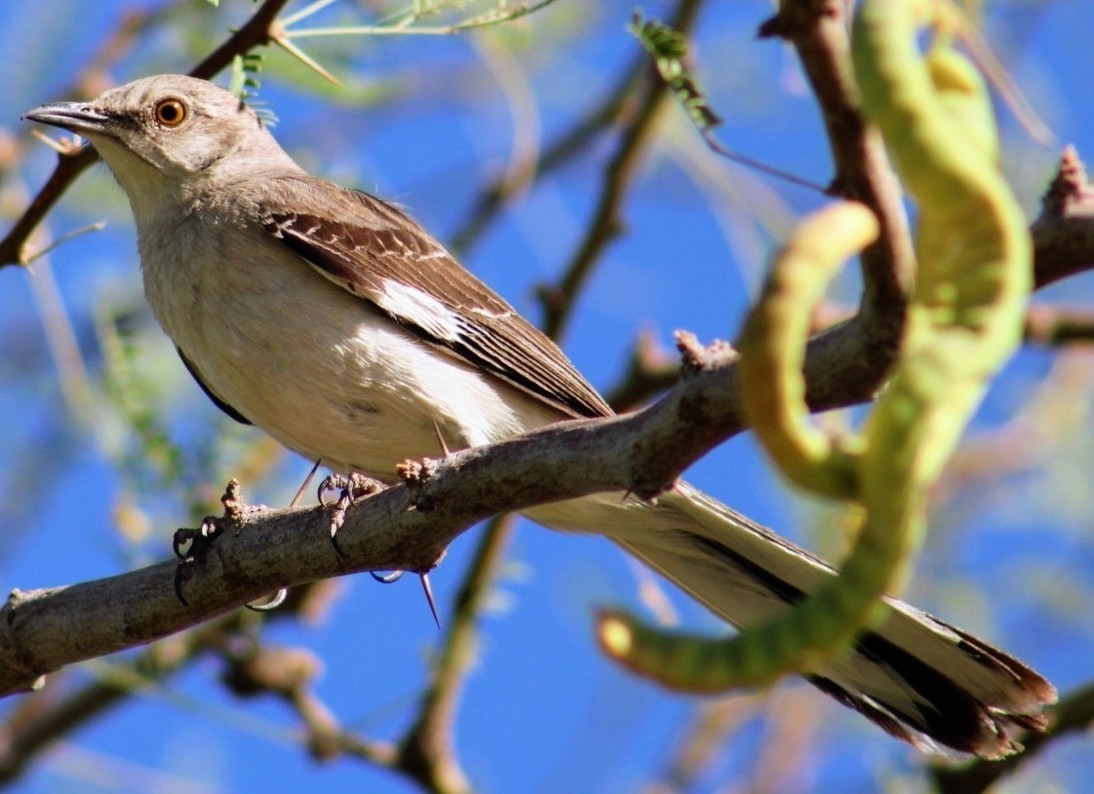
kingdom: Animalia
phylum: Chordata
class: Aves
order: Passeriformes
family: Mimidae
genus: Mimus
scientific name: Mimus polyglottos
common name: Northern mockingbird
